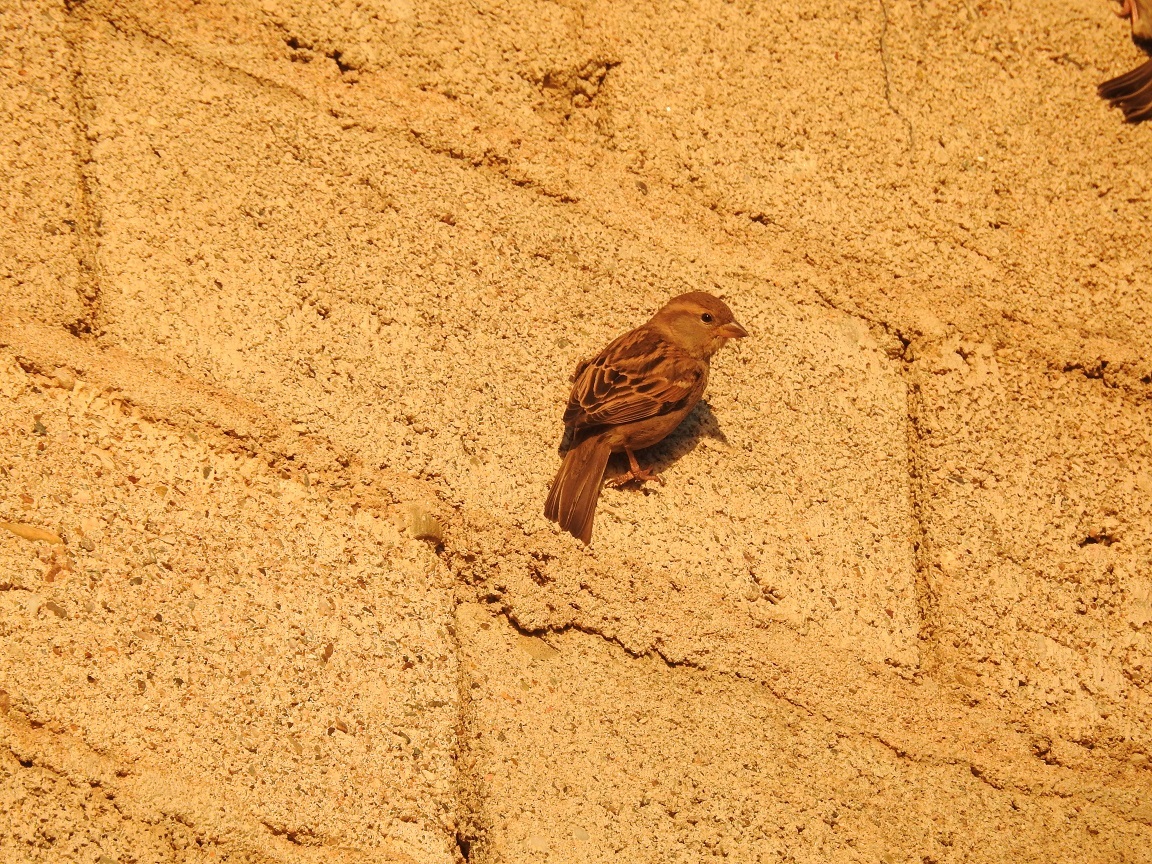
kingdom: Animalia
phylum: Chordata
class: Aves
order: Passeriformes
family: Passeridae
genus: Passer
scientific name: Passer domesticus
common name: House sparrow
